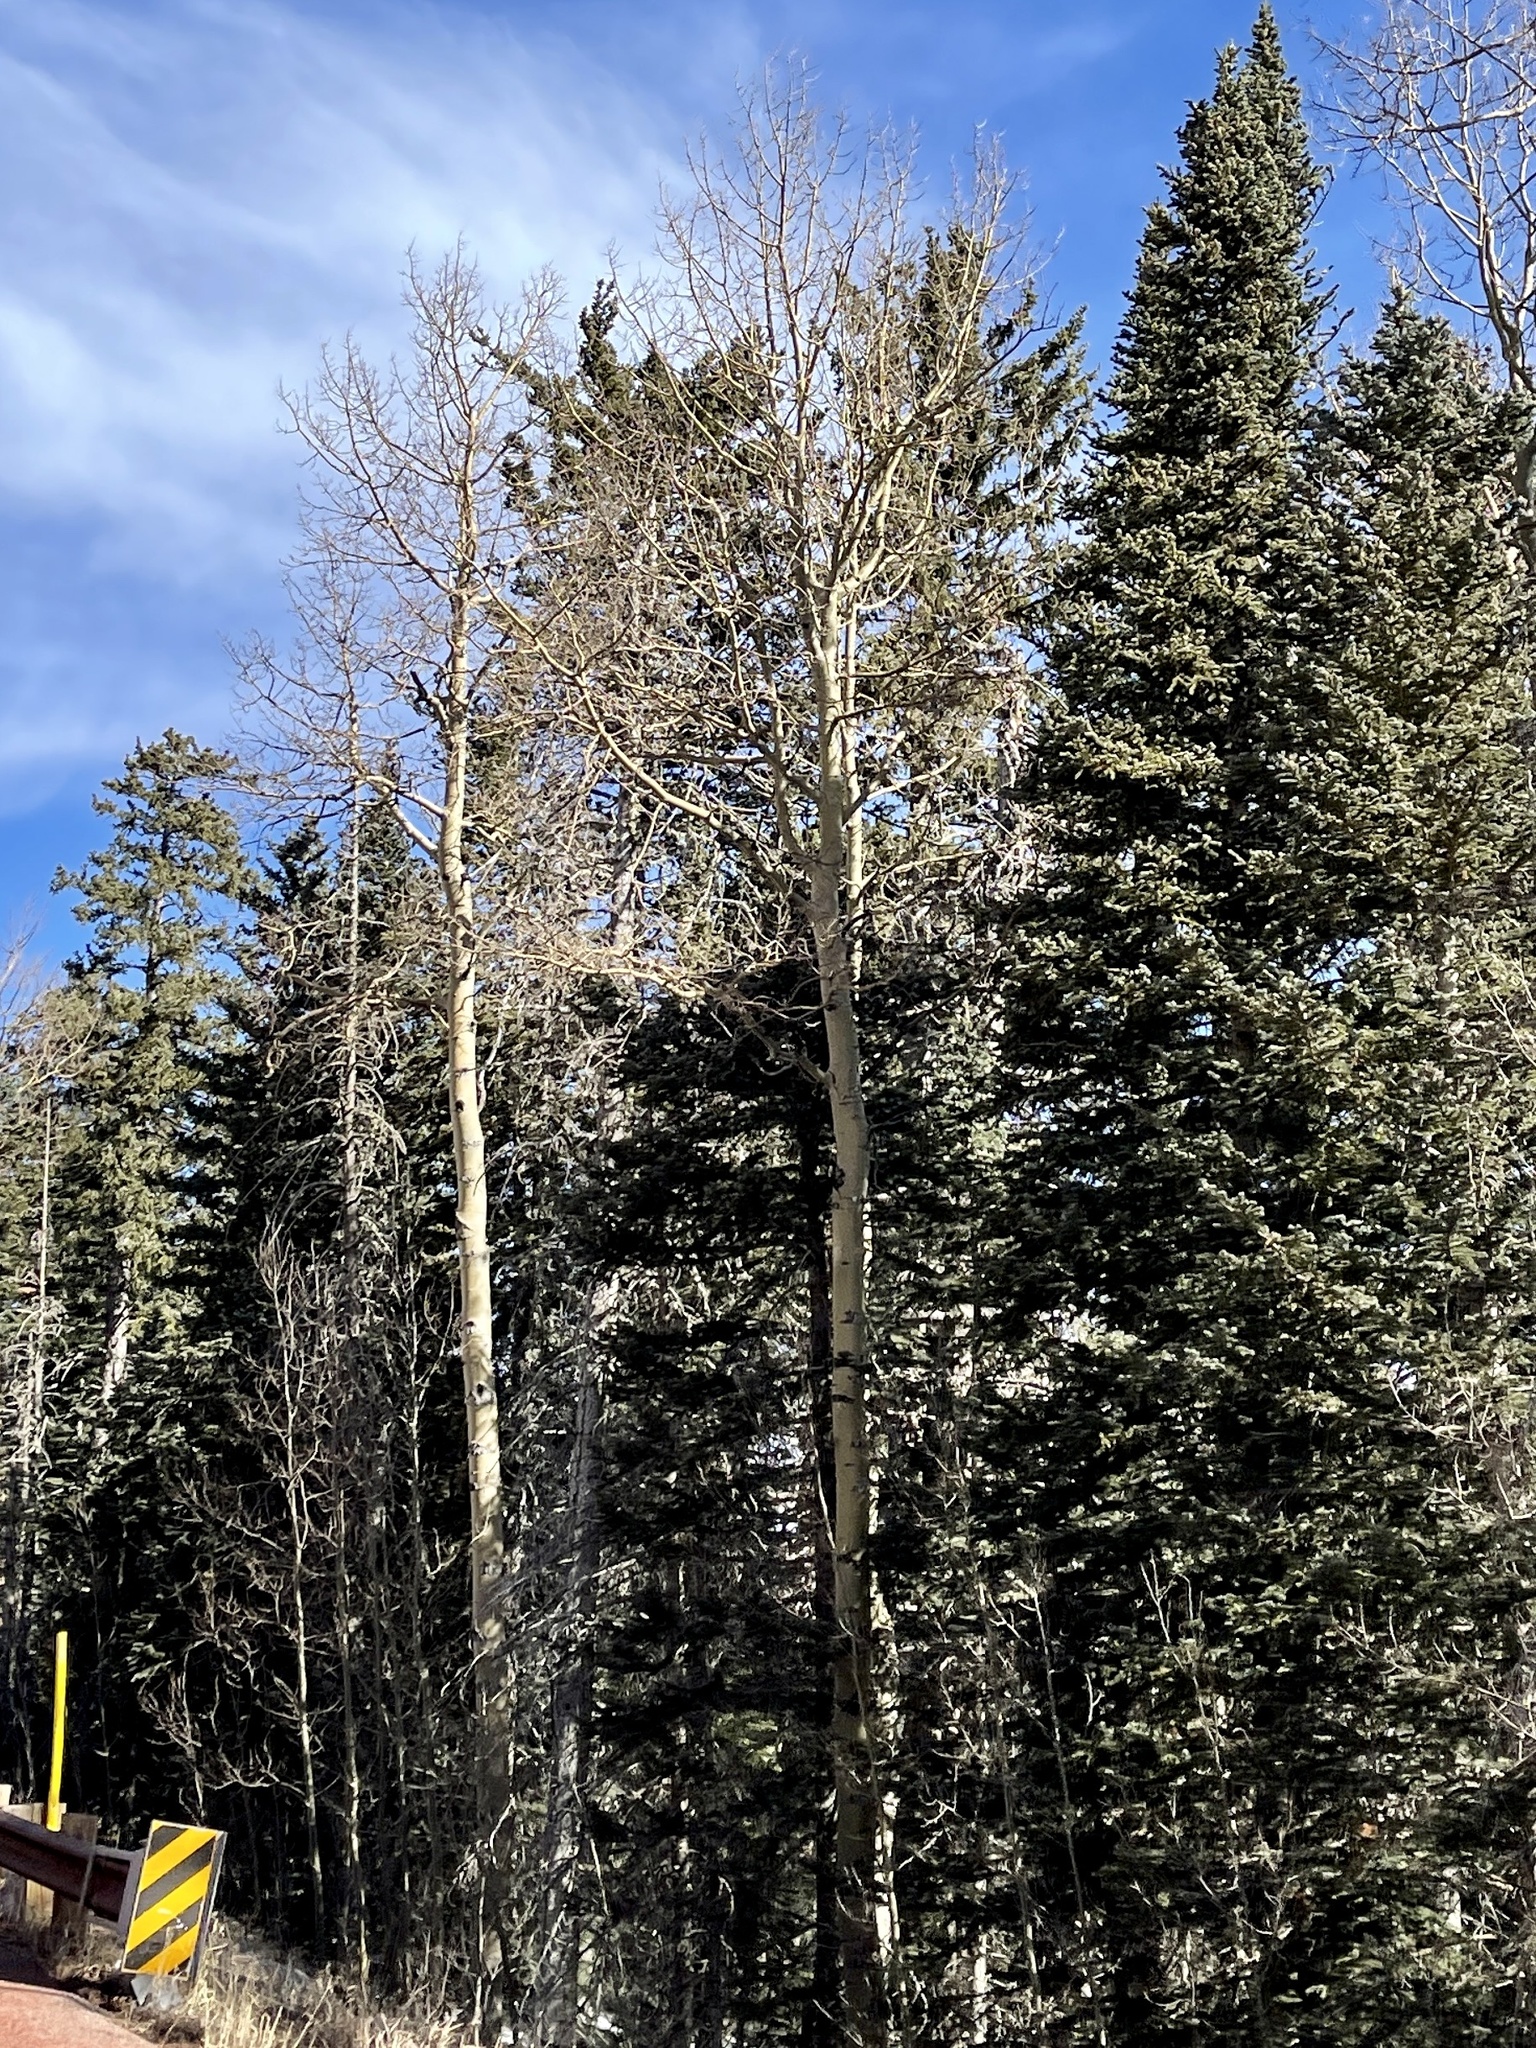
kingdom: Plantae
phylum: Tracheophyta
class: Magnoliopsida
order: Malpighiales
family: Salicaceae
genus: Populus
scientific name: Populus tremuloides
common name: Quaking aspen
